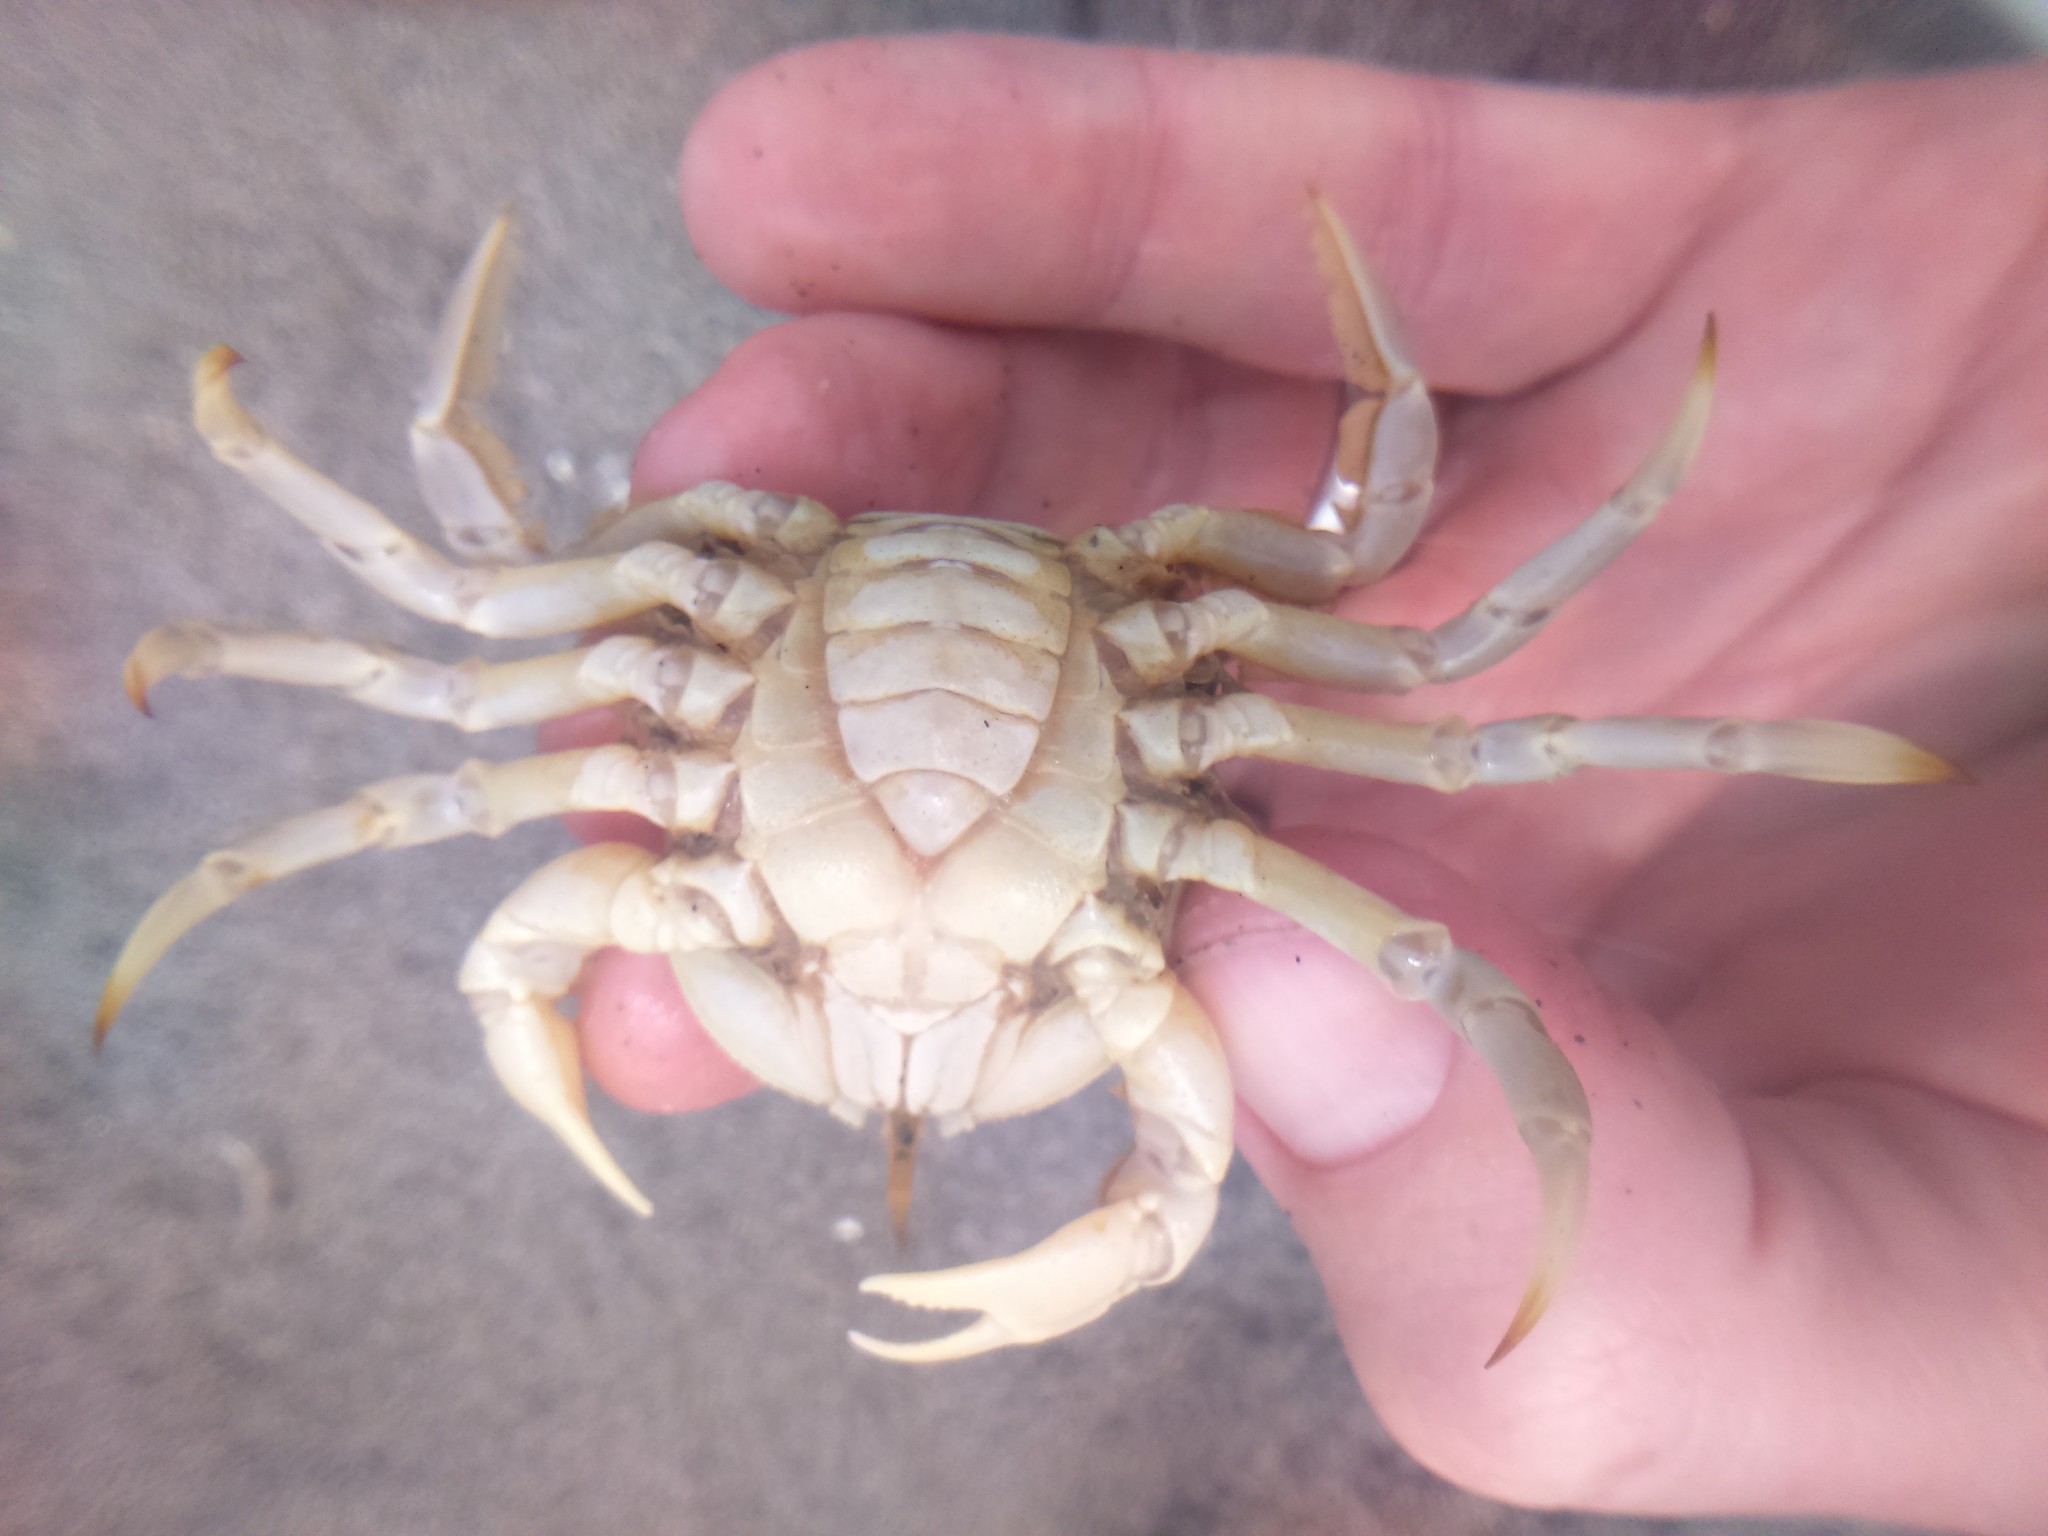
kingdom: Animalia
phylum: Arthropoda
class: Malacostraca
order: Decapoda
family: Belliidae
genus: Bellia
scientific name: Bellia picta
